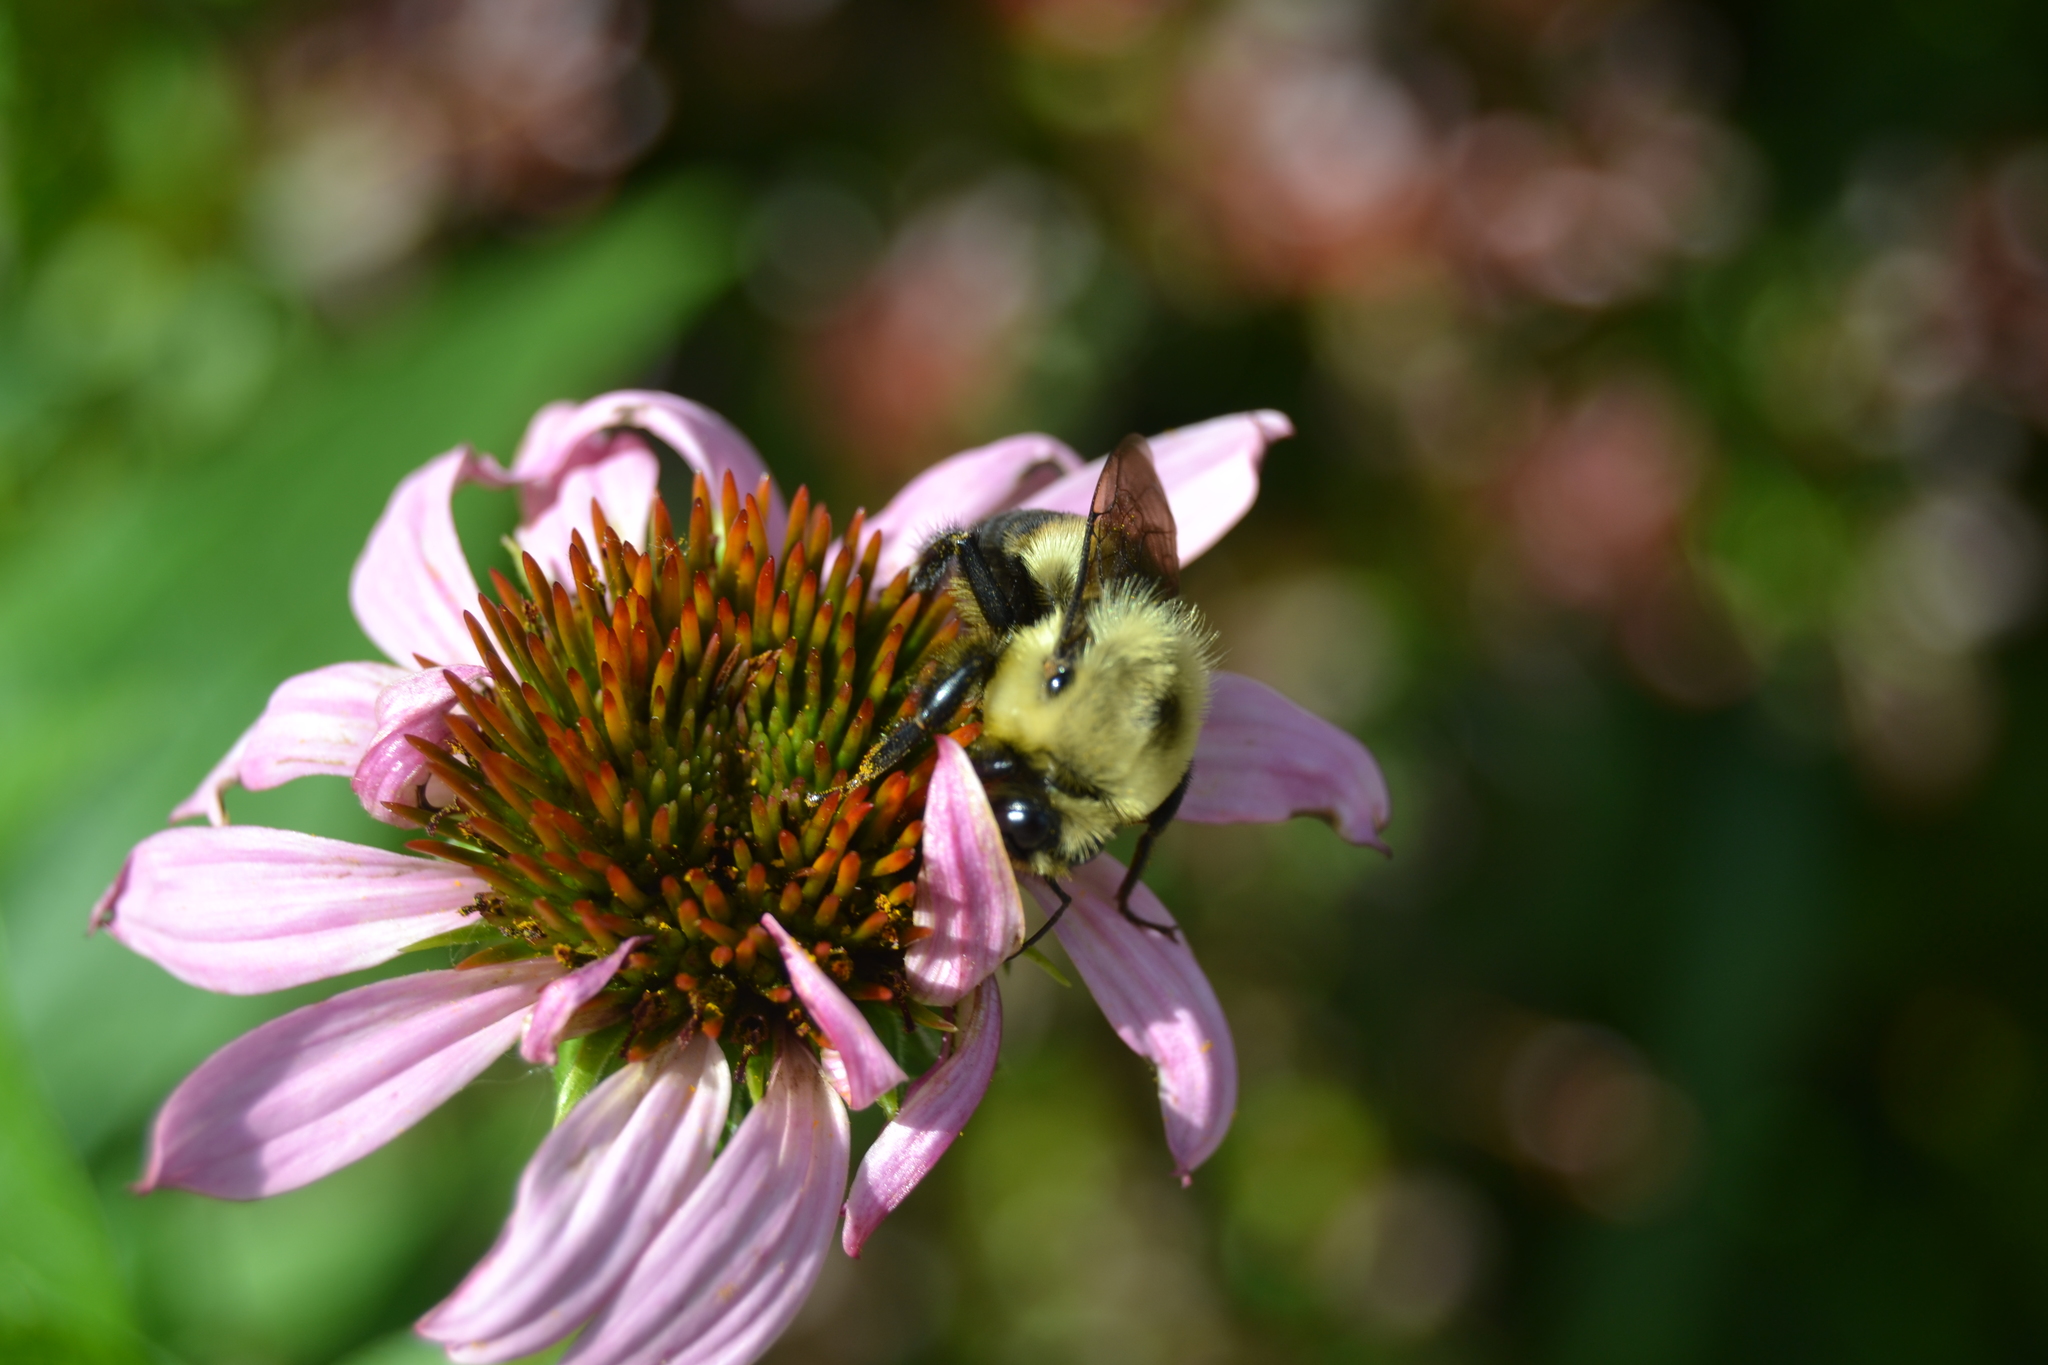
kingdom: Animalia
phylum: Arthropoda
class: Insecta
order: Hymenoptera
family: Apidae
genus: Bombus
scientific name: Bombus griseocollis
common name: Brown-belted bumble bee
